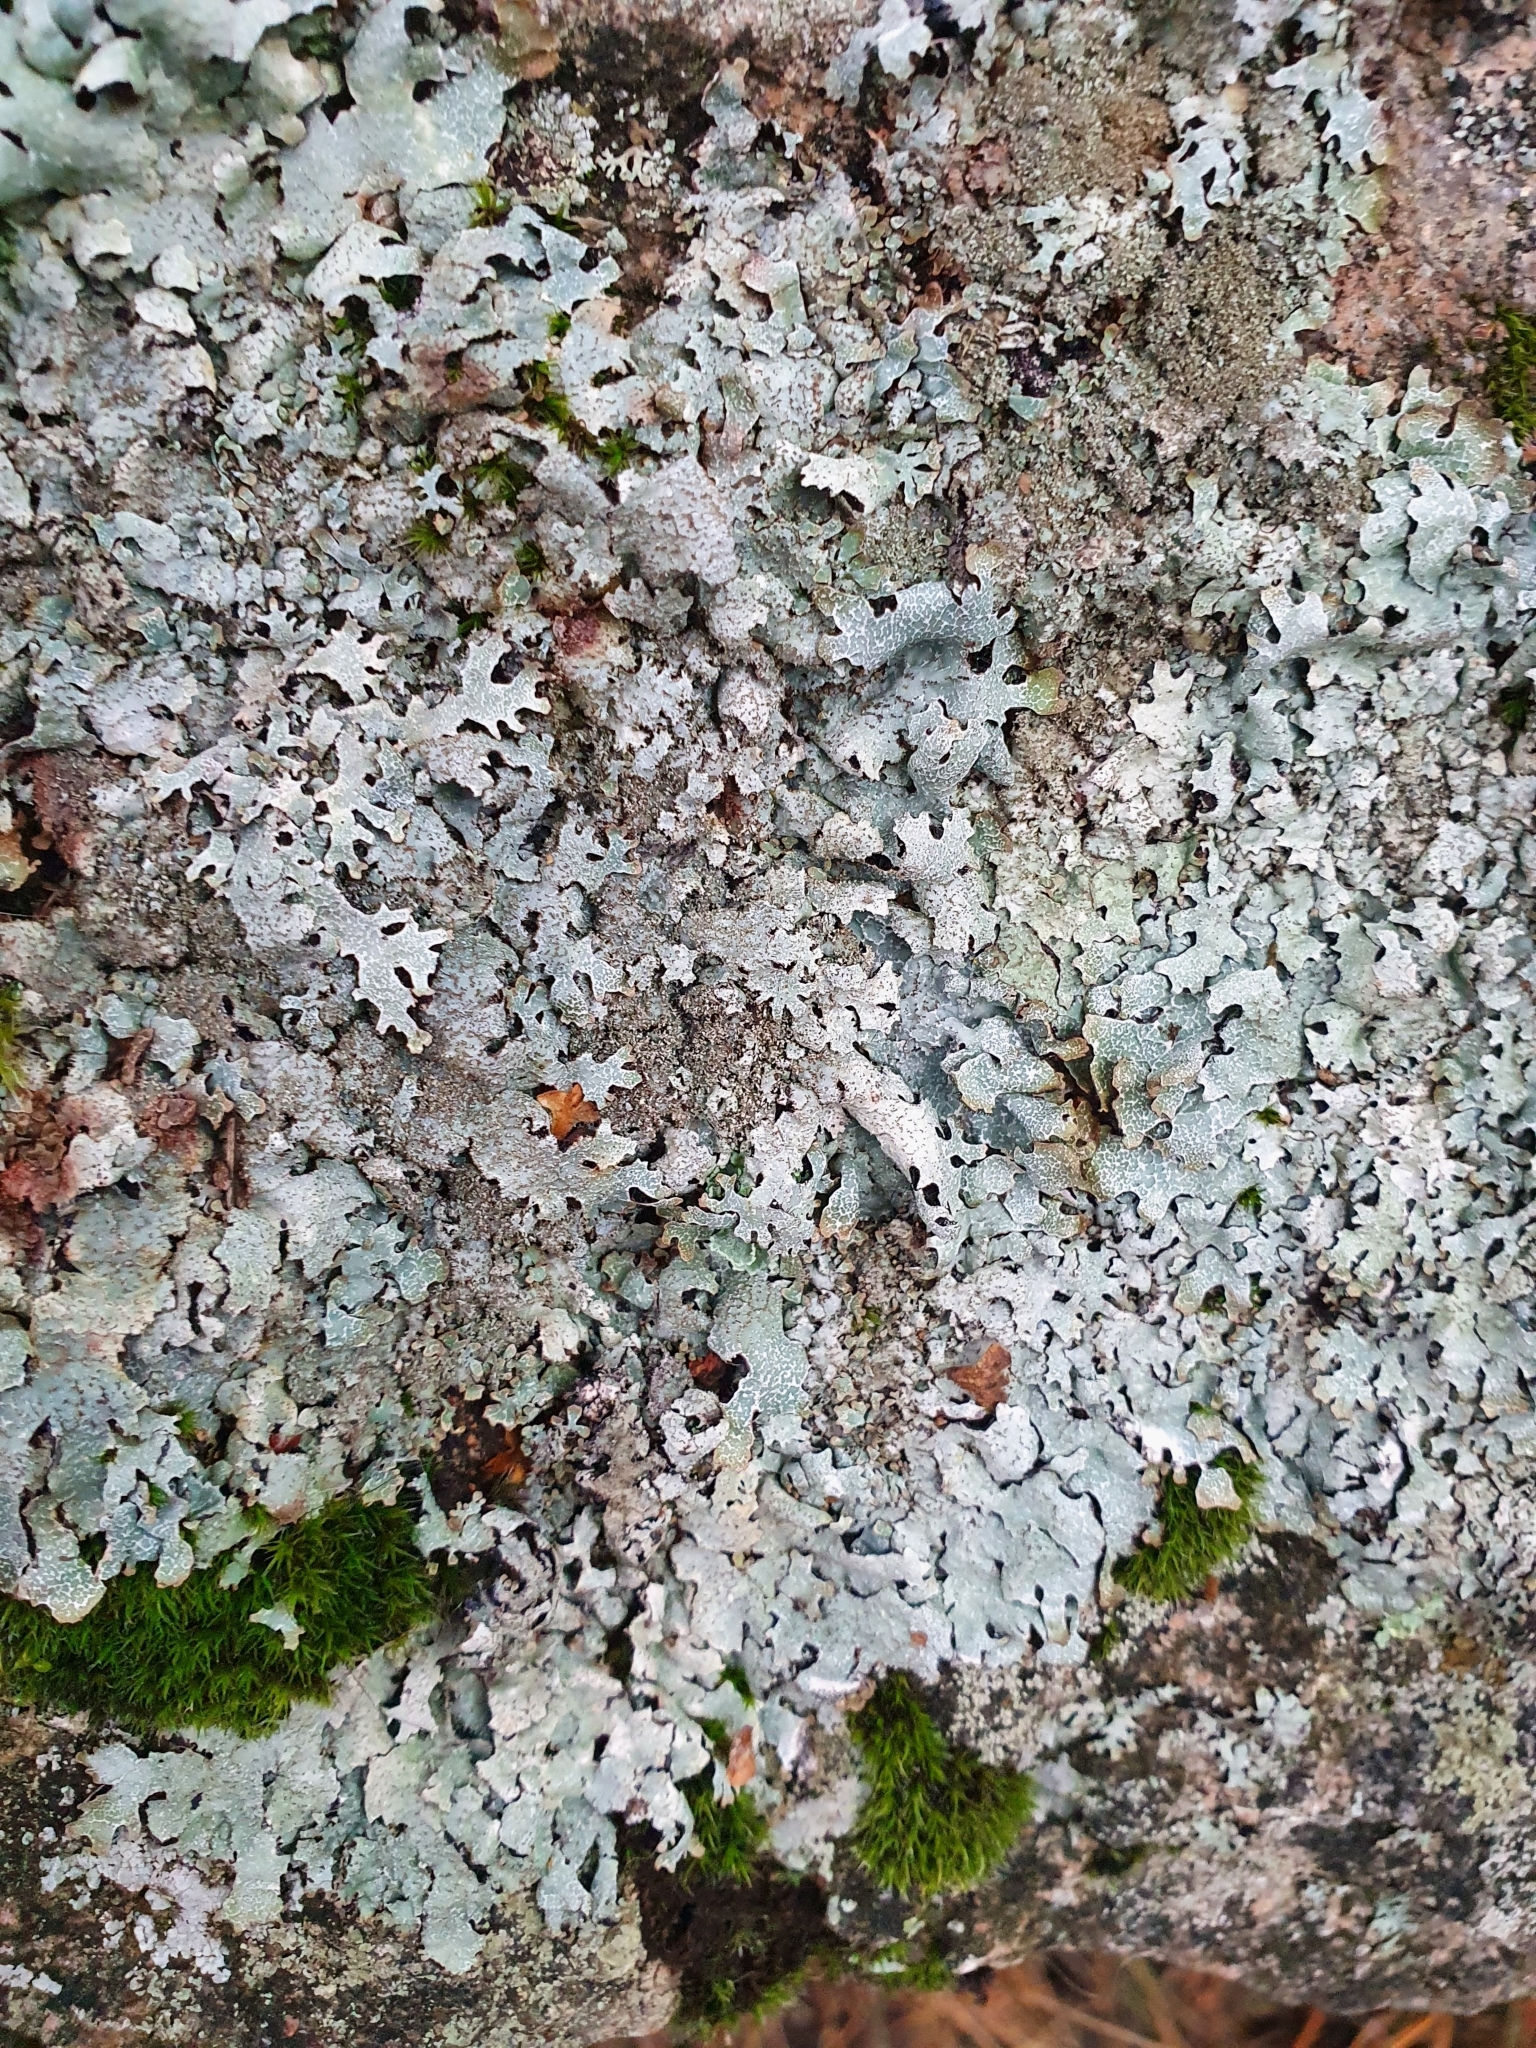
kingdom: Fungi
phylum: Ascomycota
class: Lecanoromycetes
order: Lecanorales
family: Parmeliaceae
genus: Parmelia
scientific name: Parmelia saxatilis
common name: Salted shield lichen
